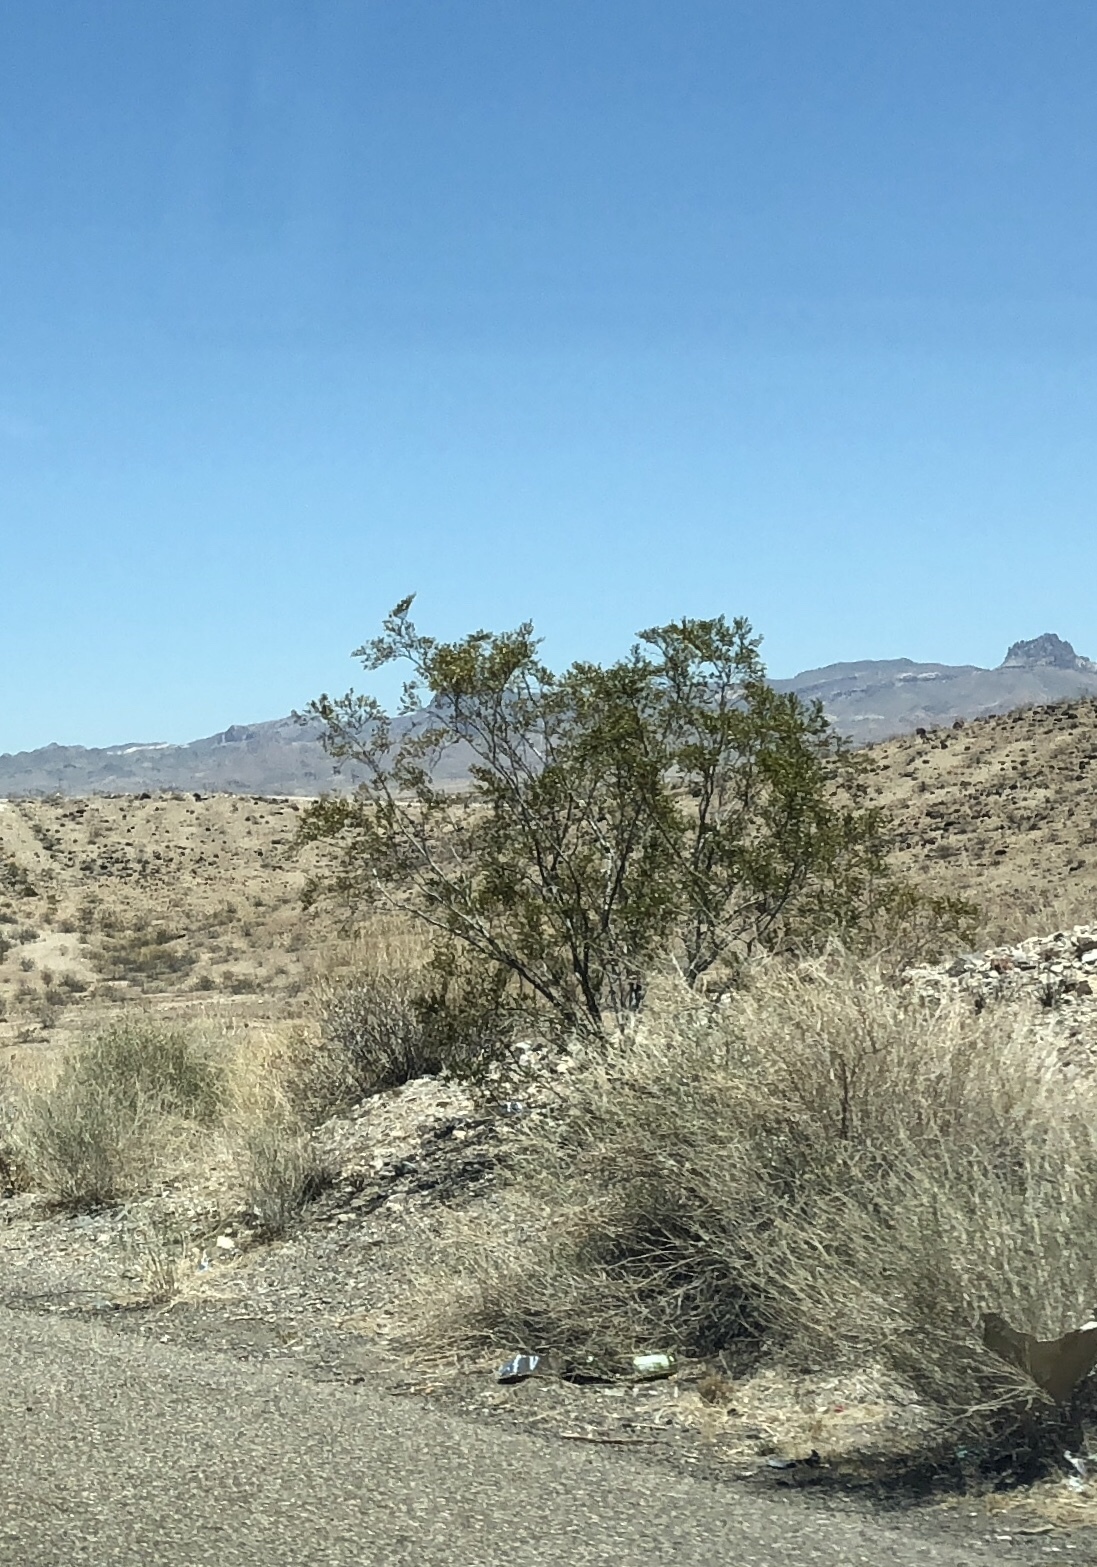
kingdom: Plantae
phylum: Tracheophyta
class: Magnoliopsida
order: Zygophyllales
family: Zygophyllaceae
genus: Larrea
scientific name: Larrea tridentata
